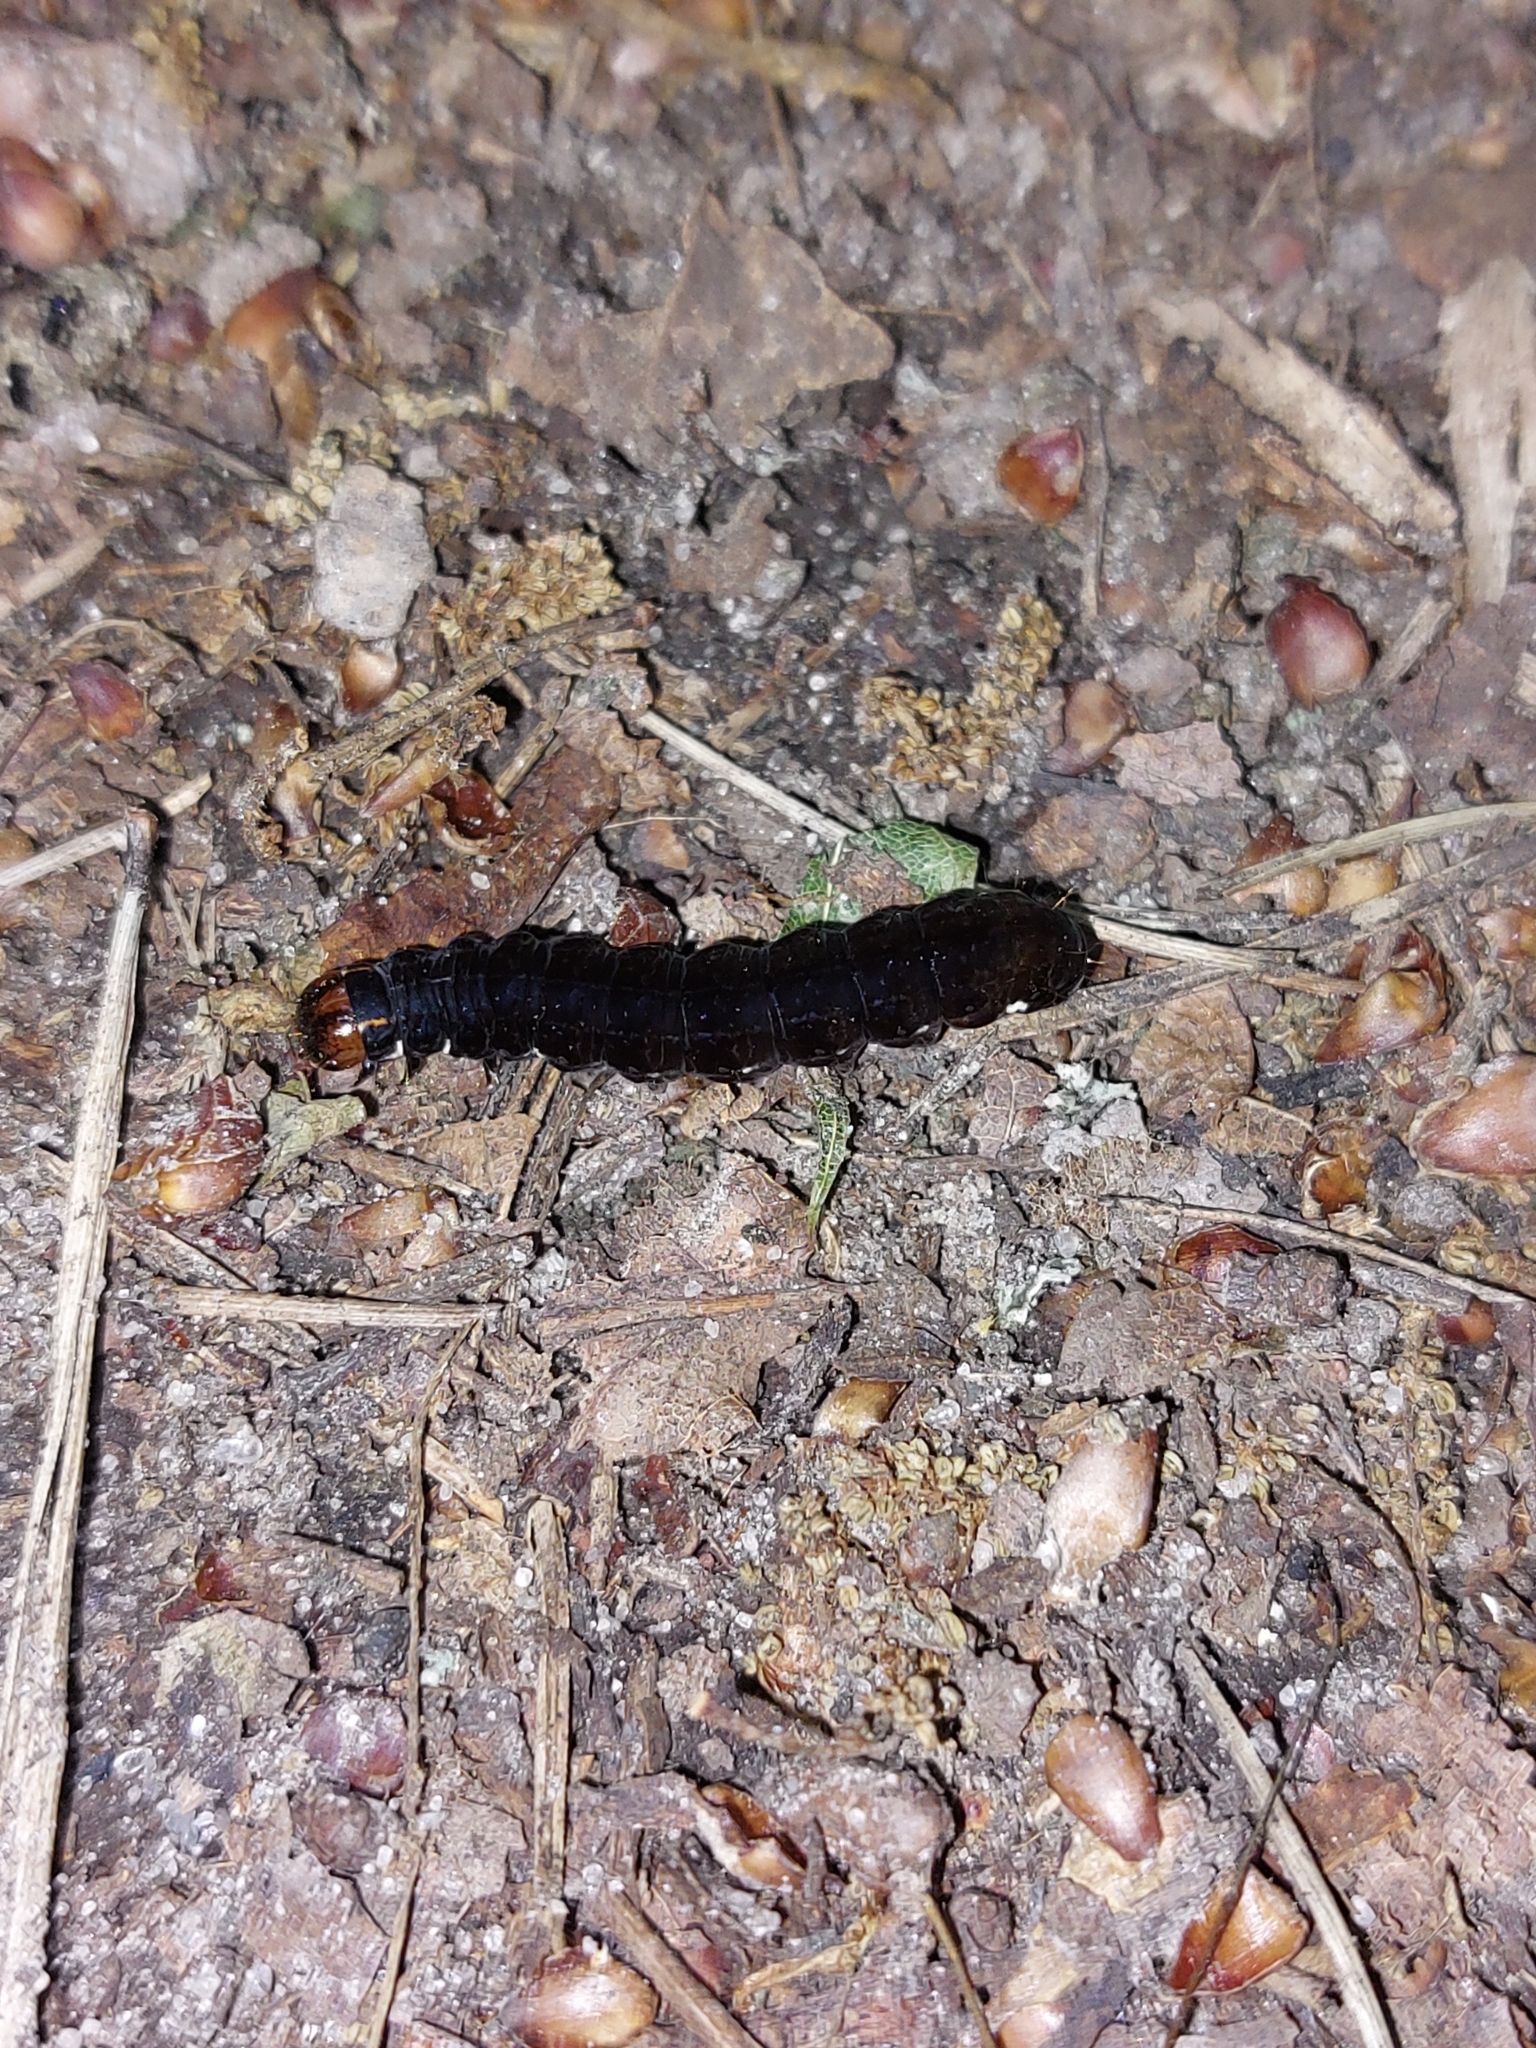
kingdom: Animalia
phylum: Arthropoda
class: Insecta
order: Lepidoptera
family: Noctuidae
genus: Eupsilia
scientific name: Eupsilia transversa
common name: Satellite
